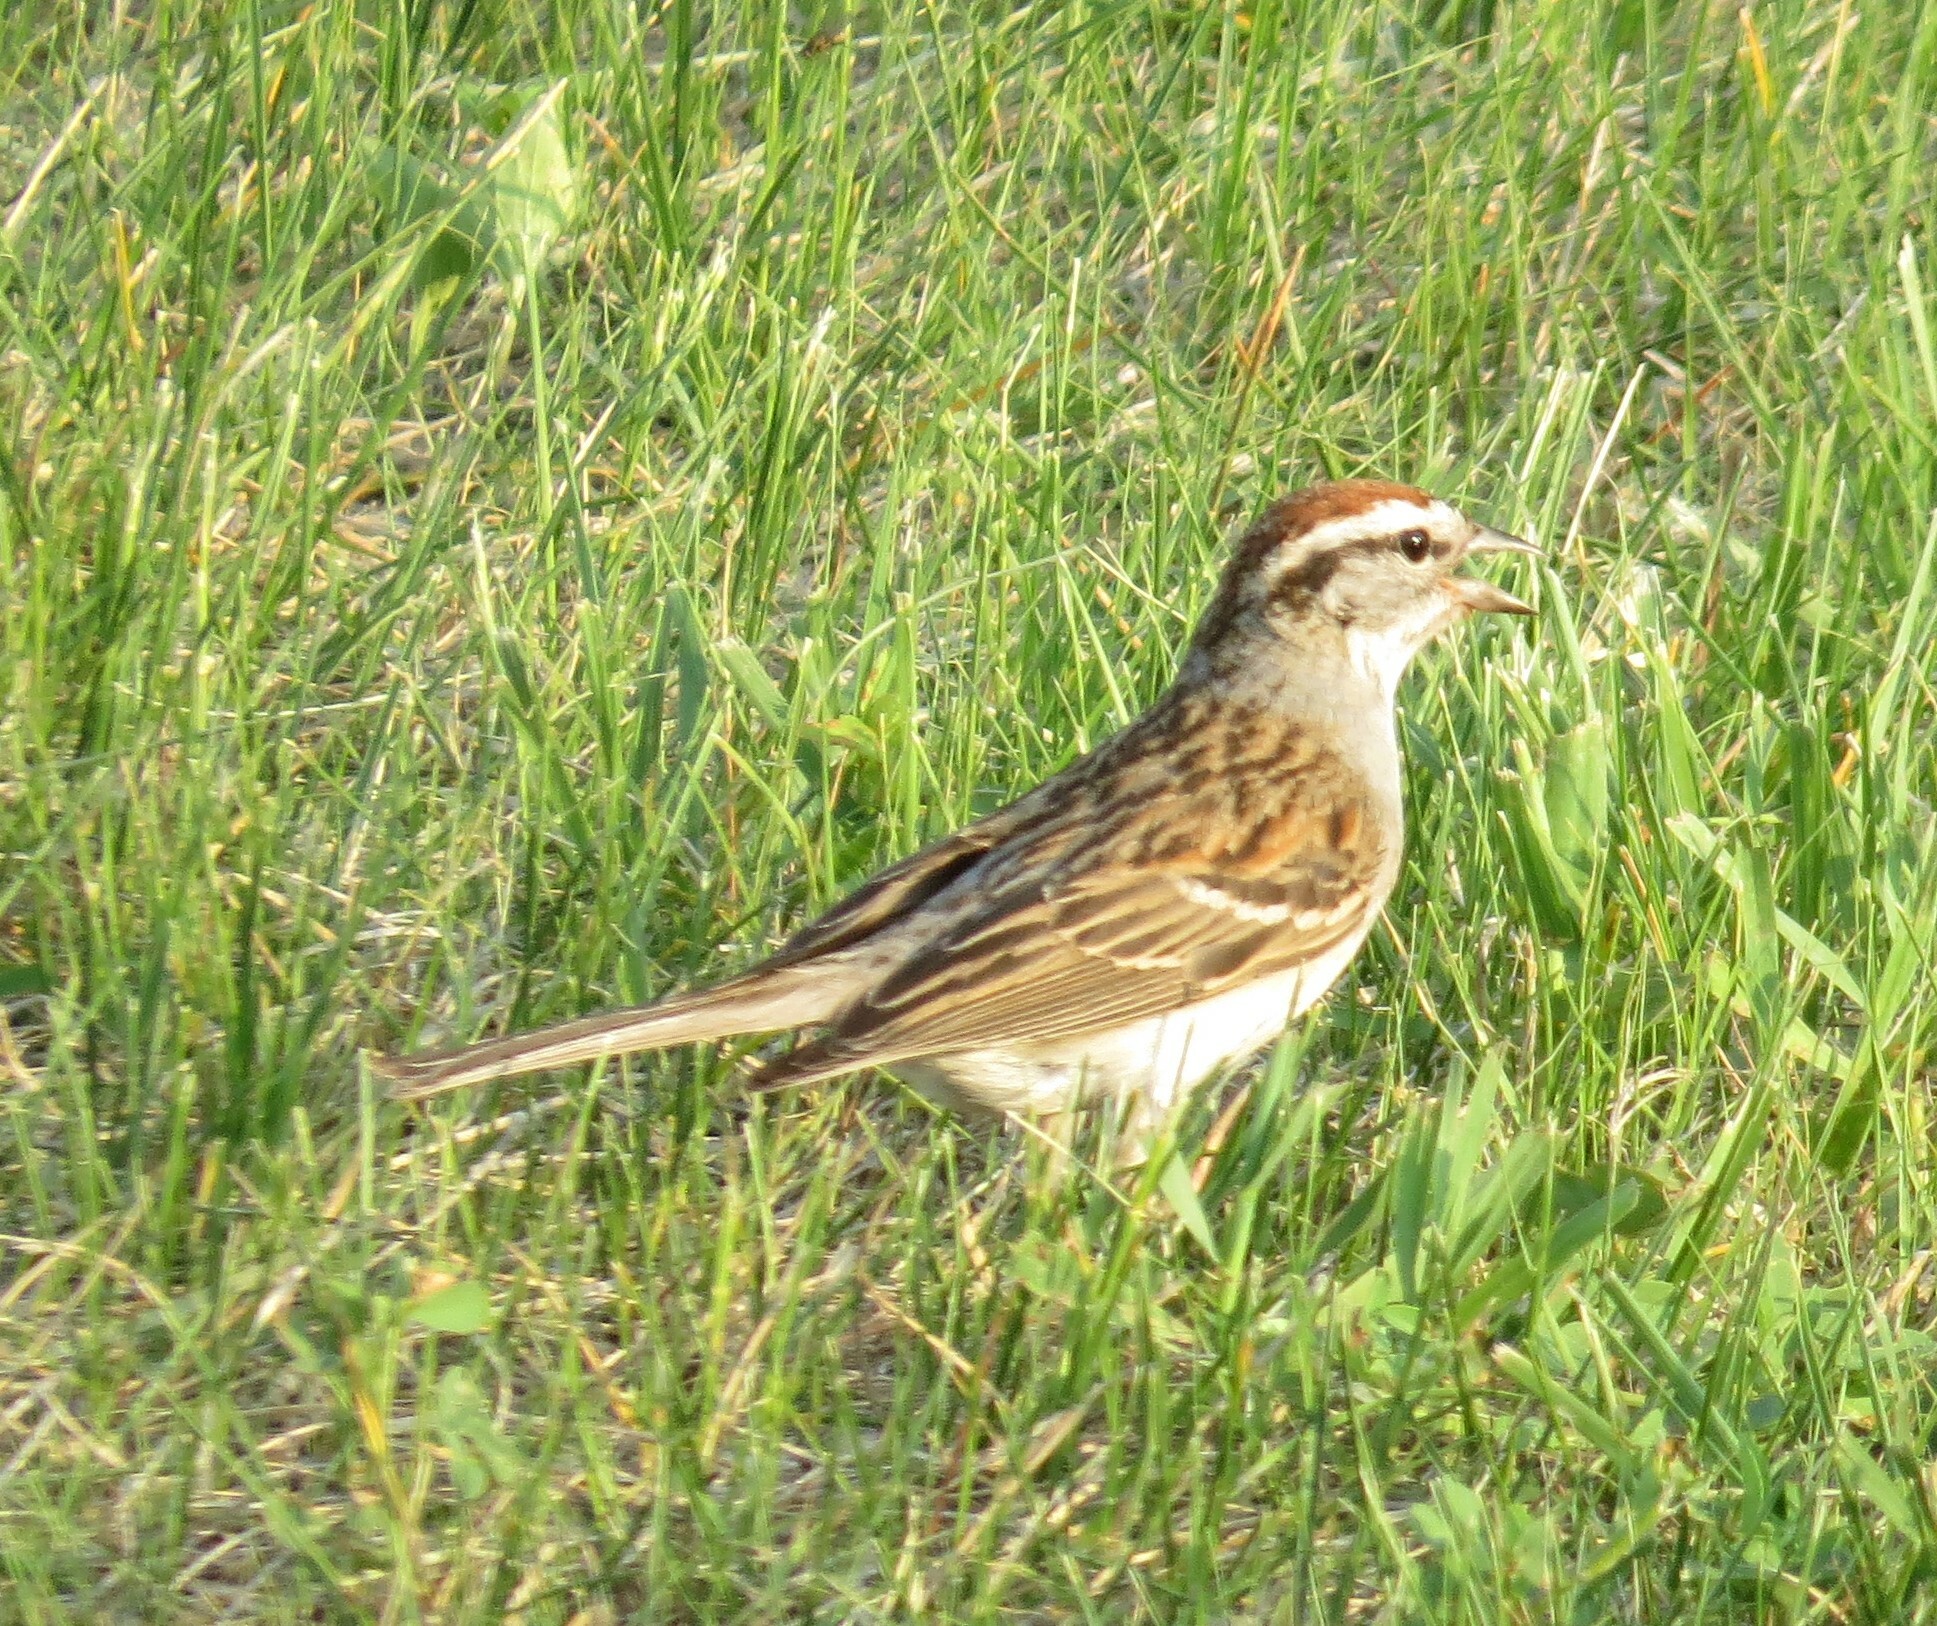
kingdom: Animalia
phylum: Chordata
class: Aves
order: Passeriformes
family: Passerellidae
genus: Spizella
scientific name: Spizella passerina
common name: Chipping sparrow
